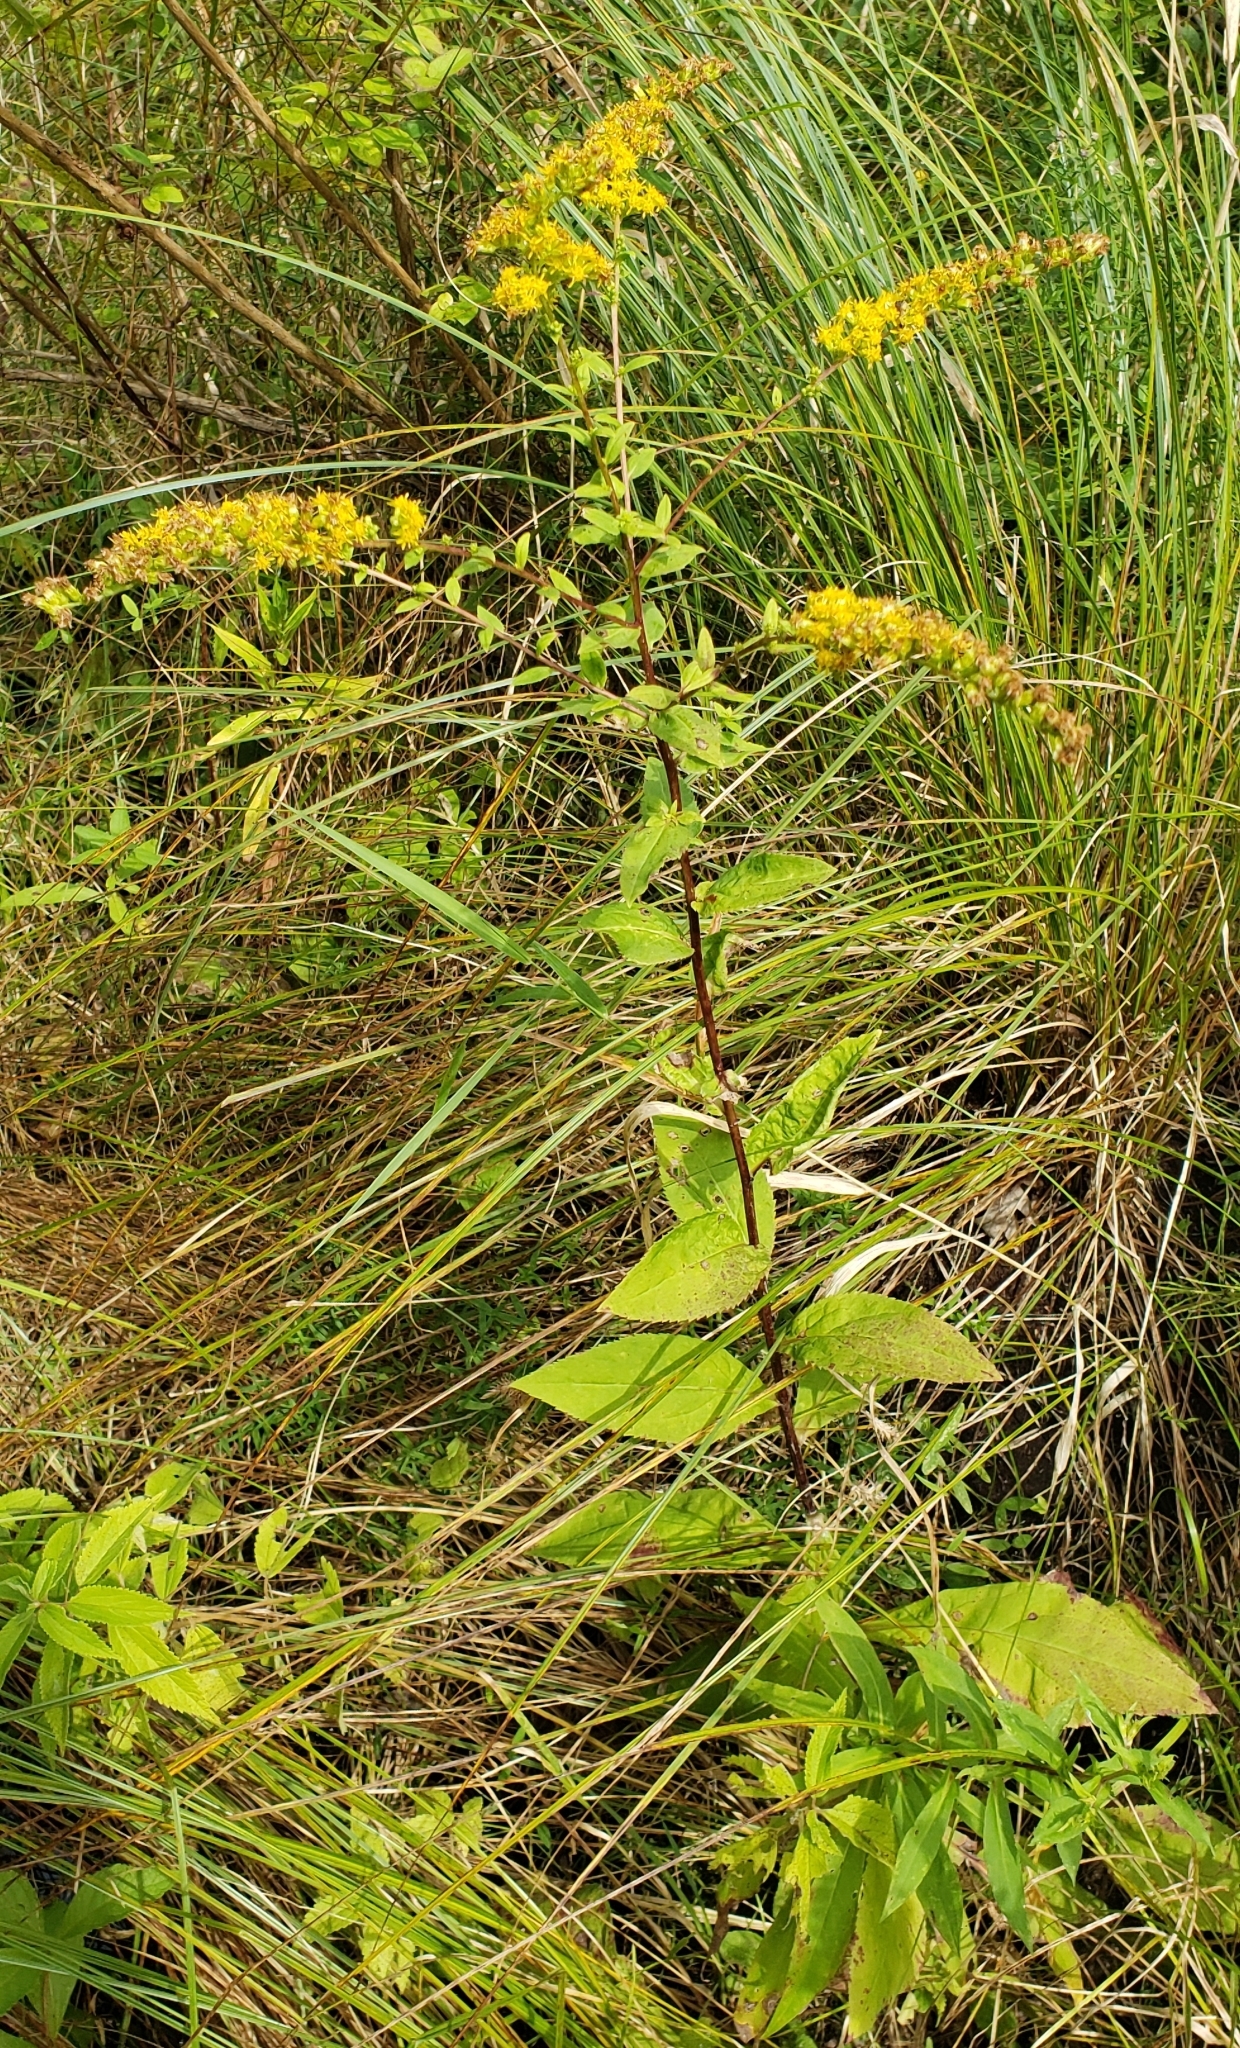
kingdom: Plantae
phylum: Tracheophyta
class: Magnoliopsida
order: Asterales
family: Asteraceae
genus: Solidago
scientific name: Solidago patula
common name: Rough-leaf goldenrod
